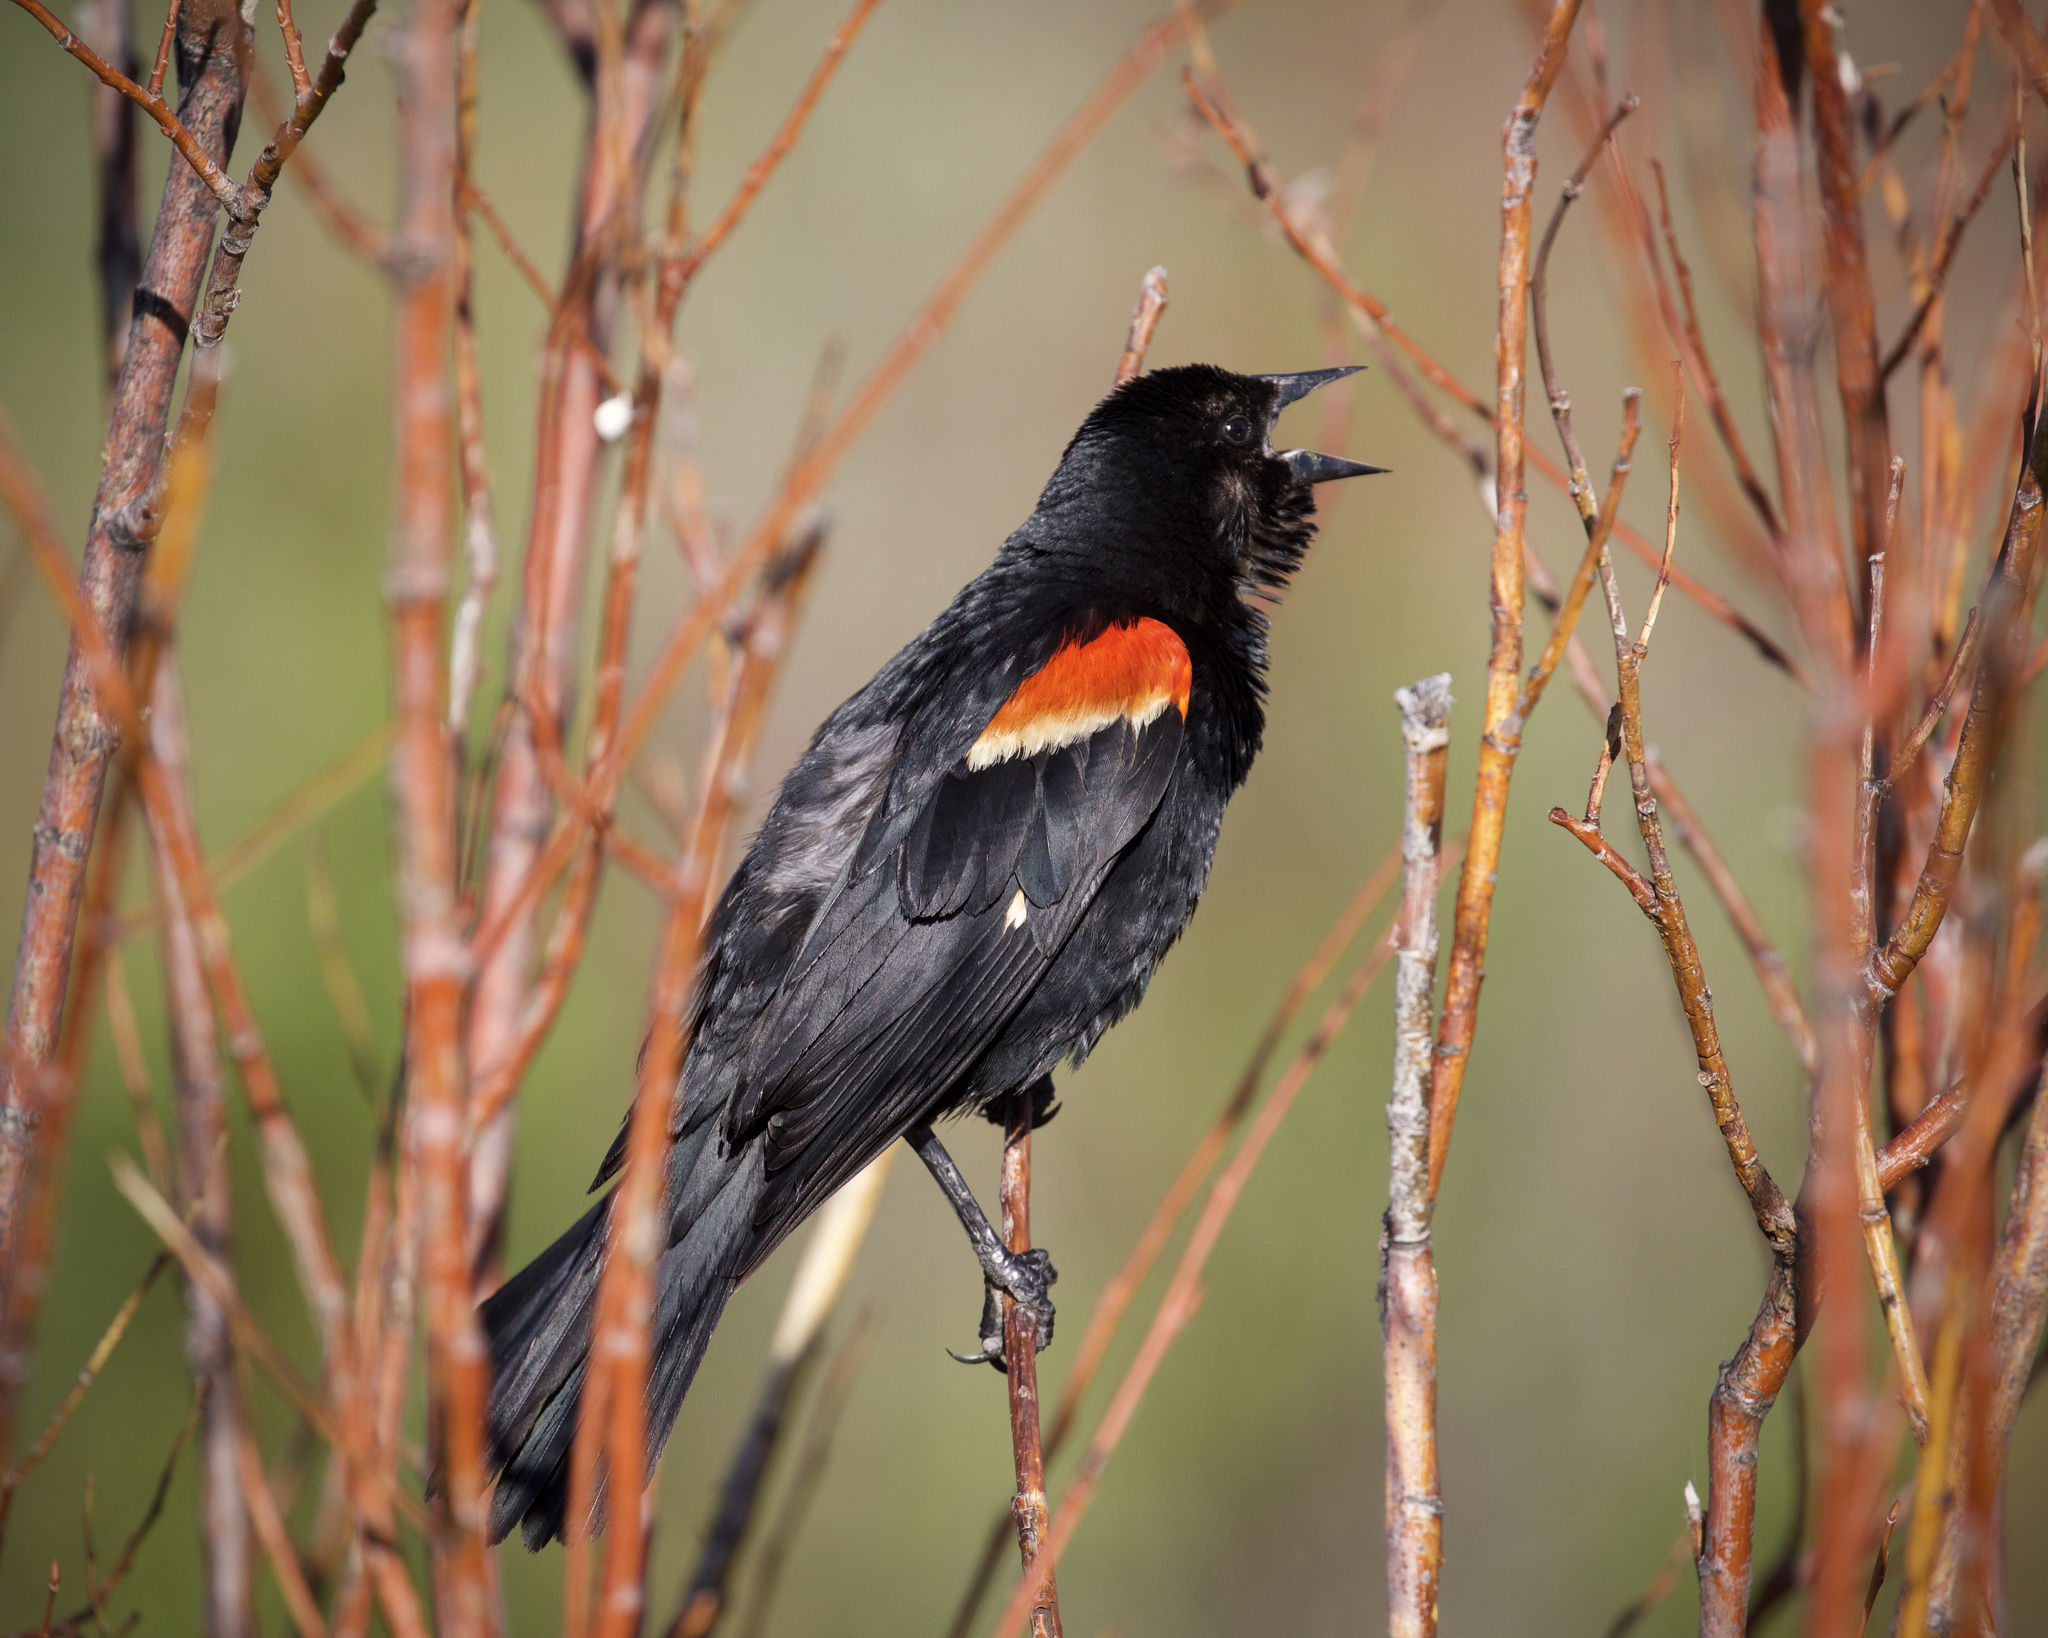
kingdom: Animalia
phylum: Chordata
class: Aves
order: Passeriformes
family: Icteridae
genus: Agelaius
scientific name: Agelaius phoeniceus
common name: Red-winged blackbird
